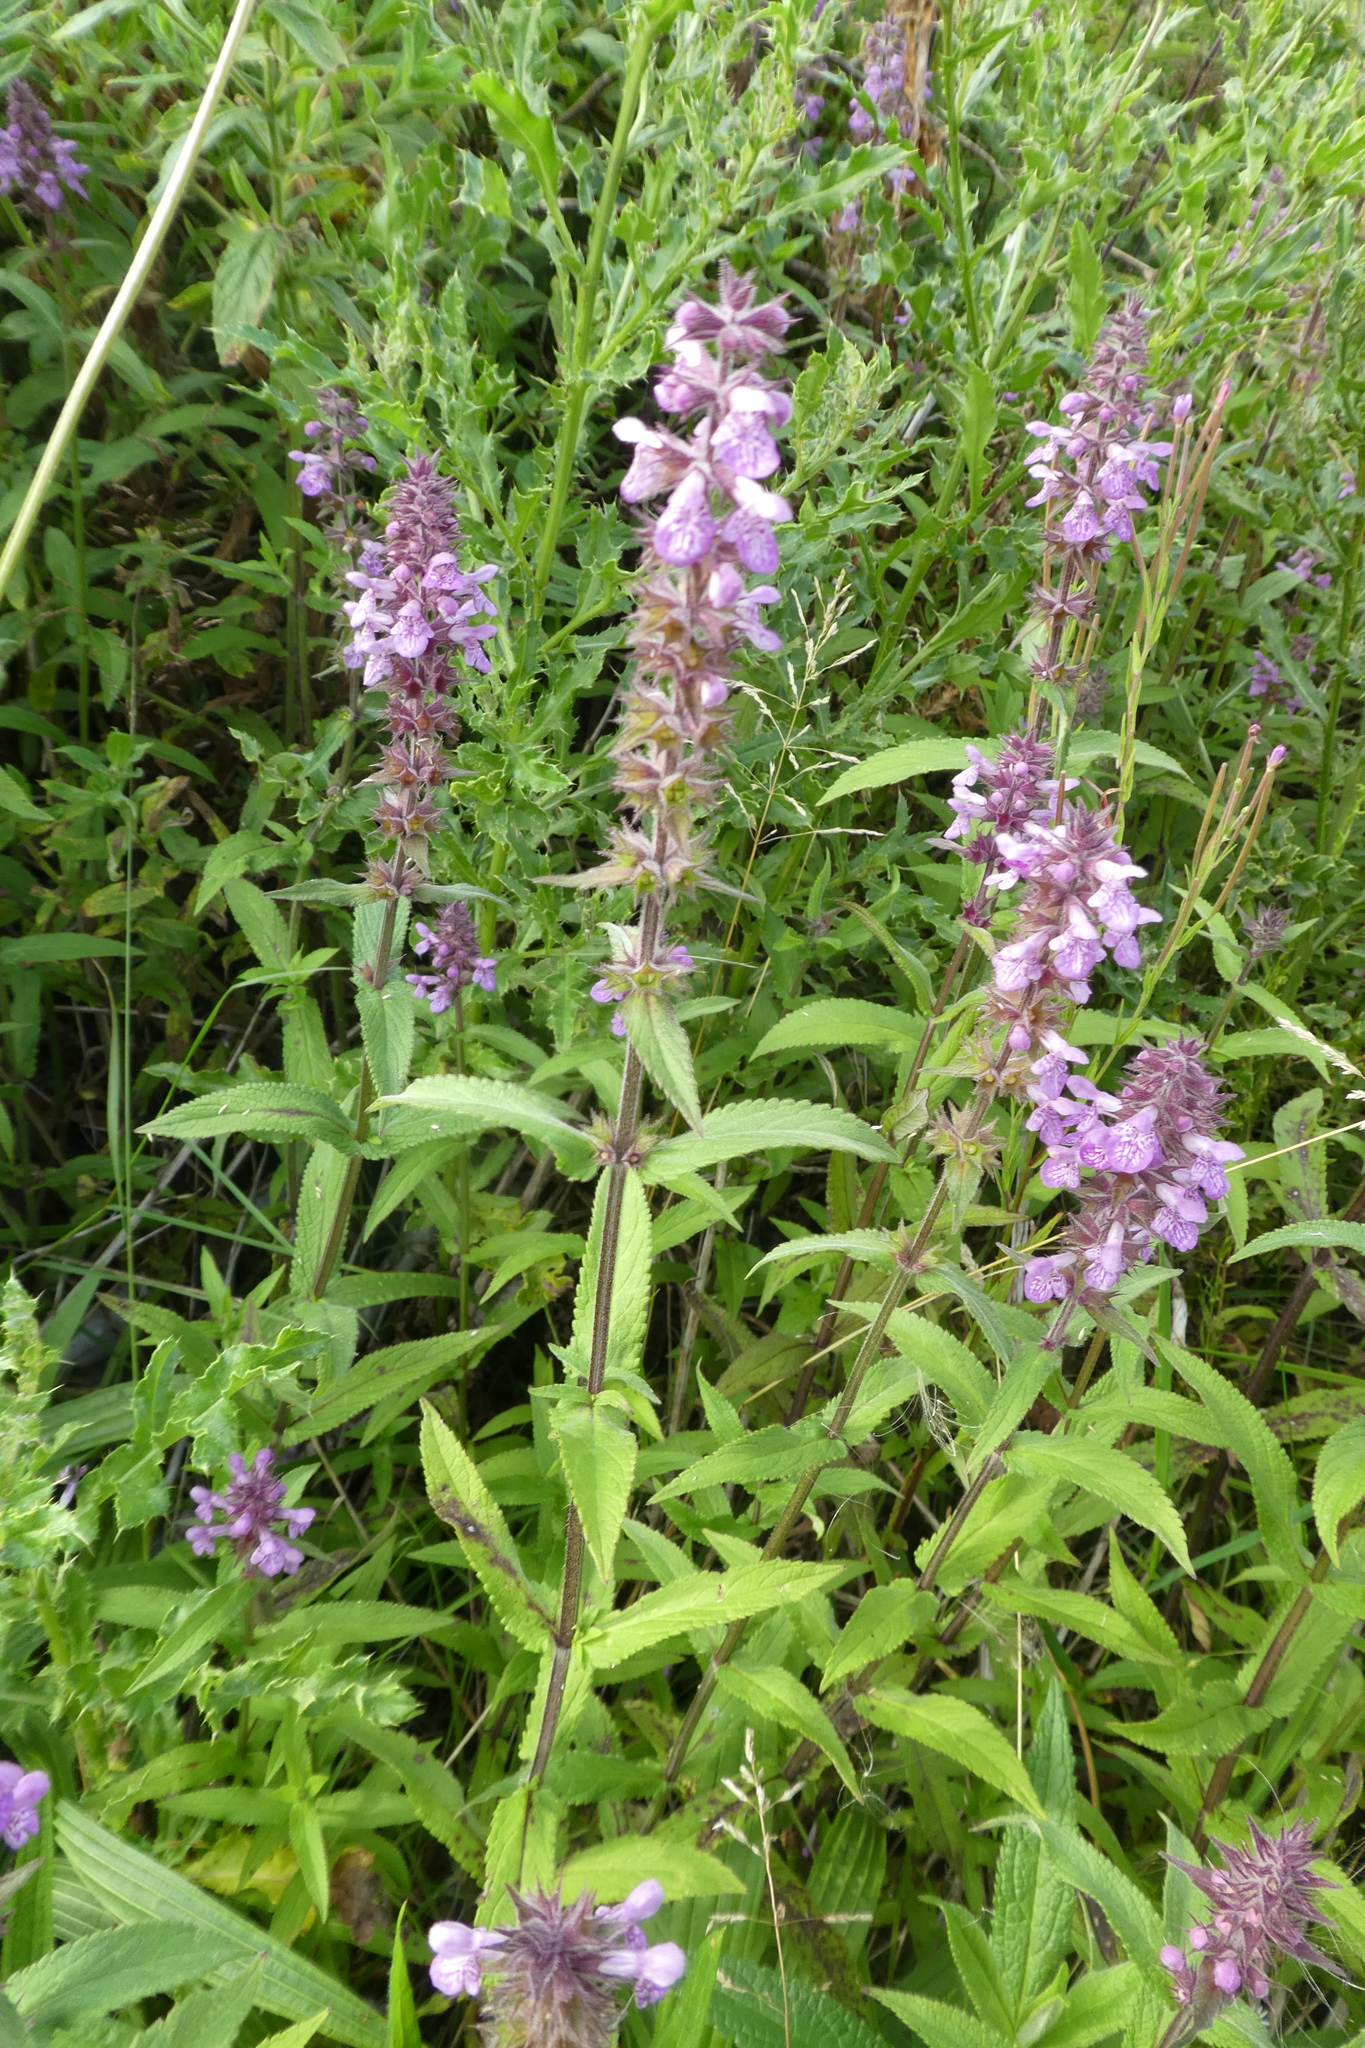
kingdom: Plantae
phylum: Tracheophyta
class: Magnoliopsida
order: Lamiales
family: Lamiaceae
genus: Stachys
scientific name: Stachys palustris
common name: Marsh woundwort
